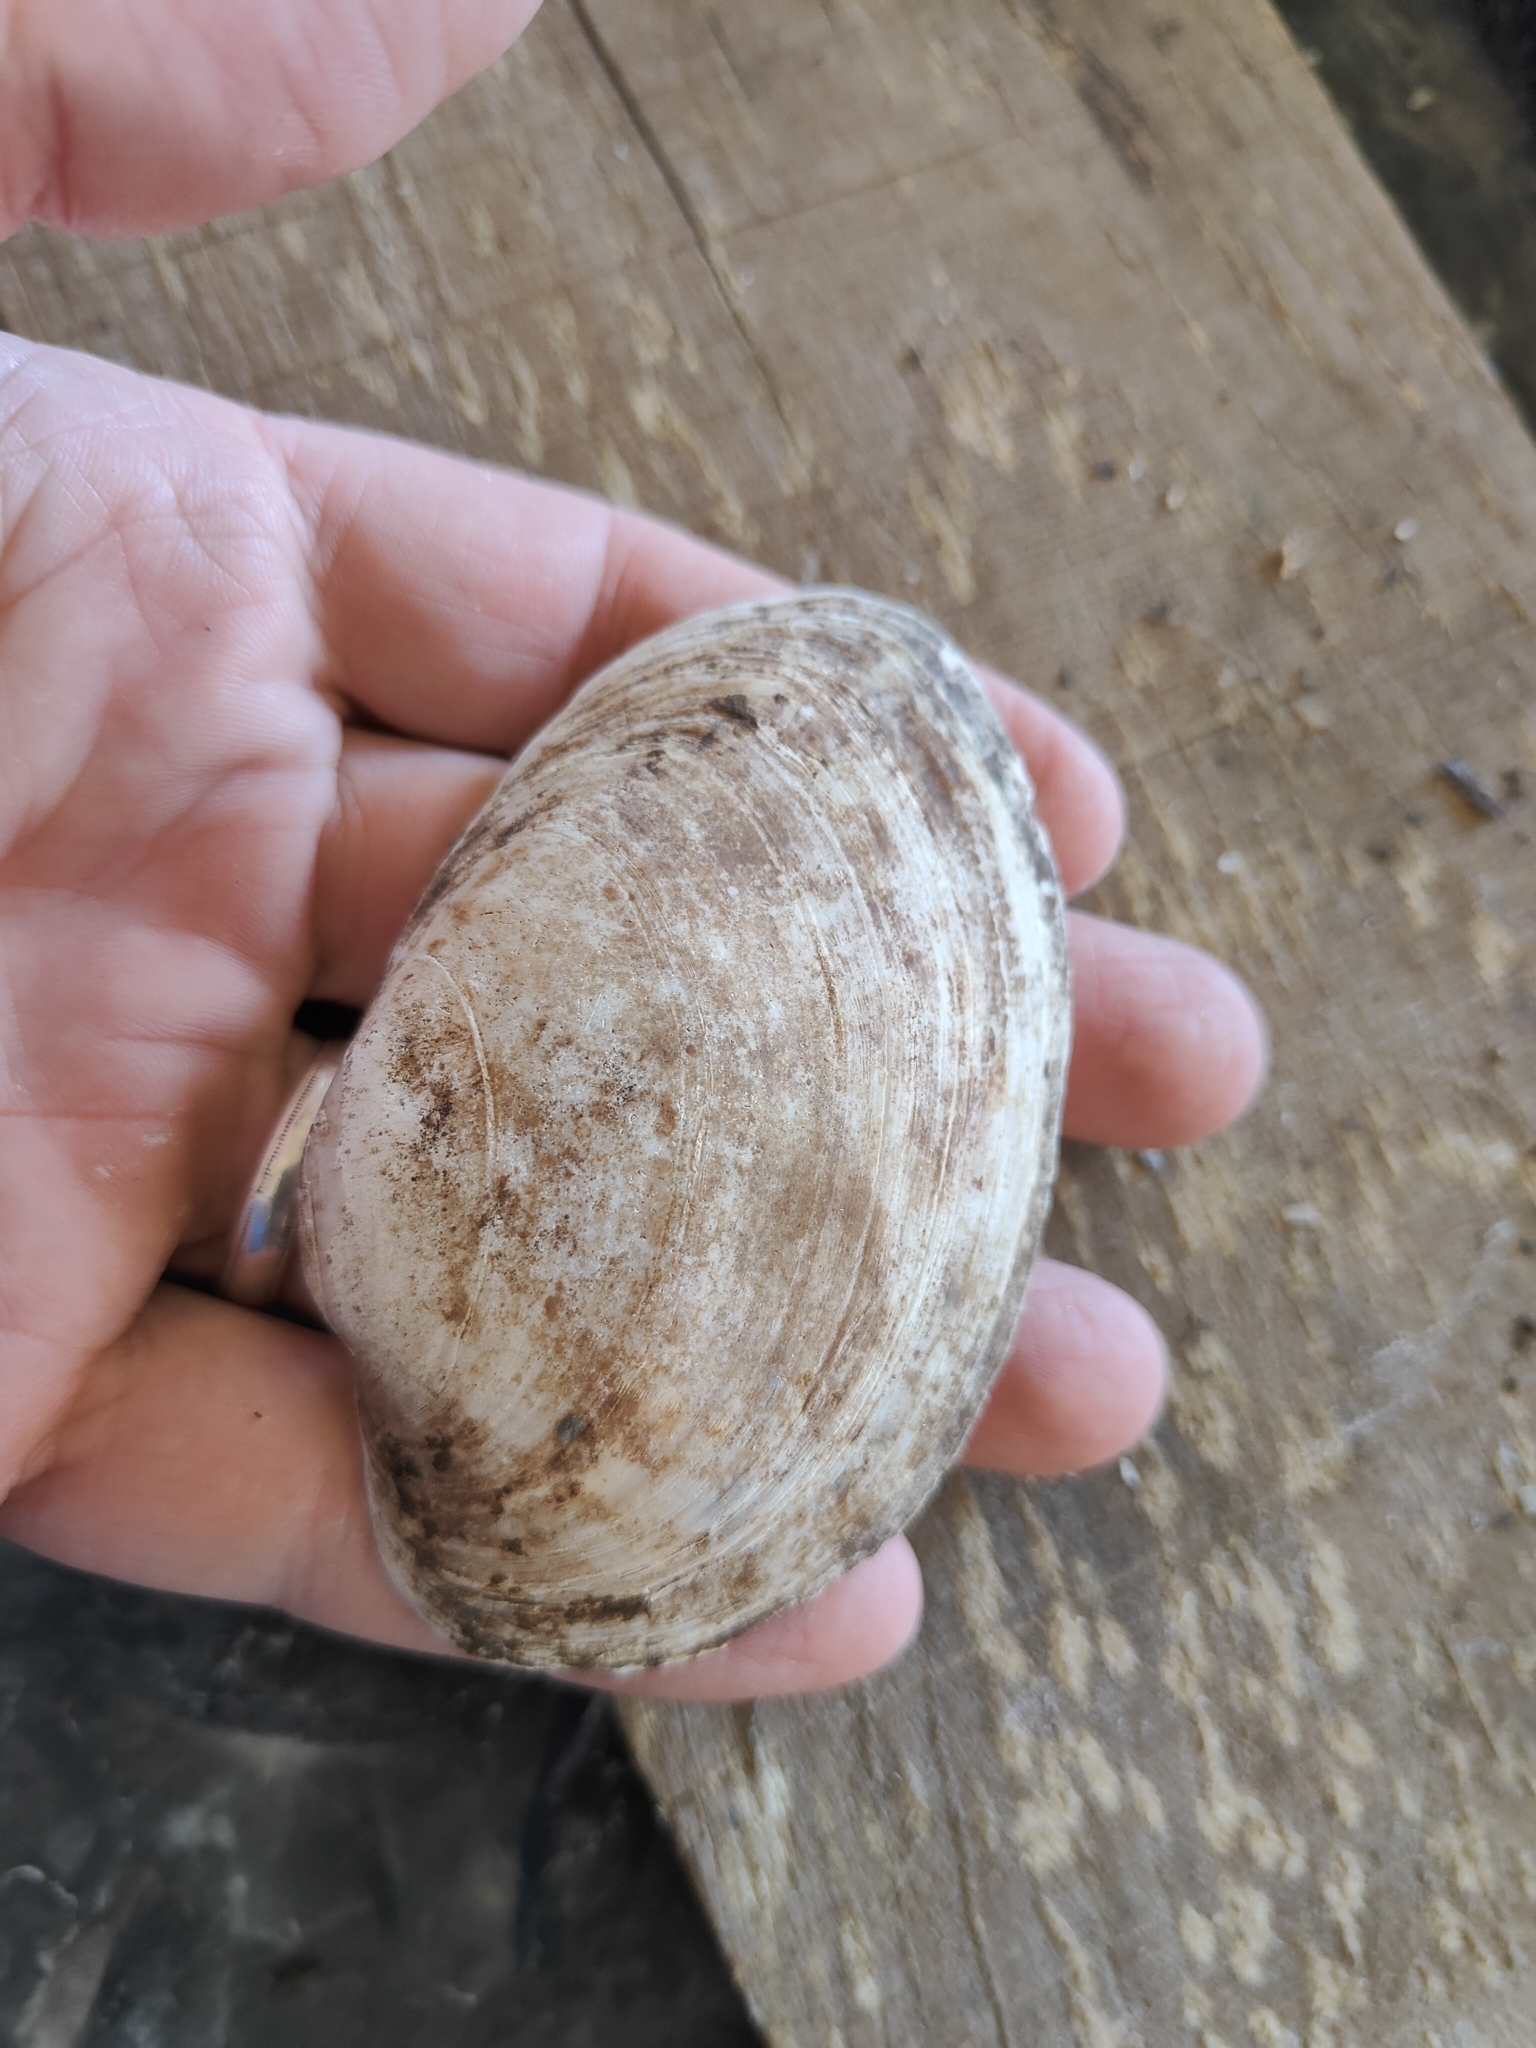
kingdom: Animalia
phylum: Mollusca
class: Bivalvia
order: Unionida
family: Unionidae
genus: Lampsilis
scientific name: Lampsilis cardium
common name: Plain pocketbook
